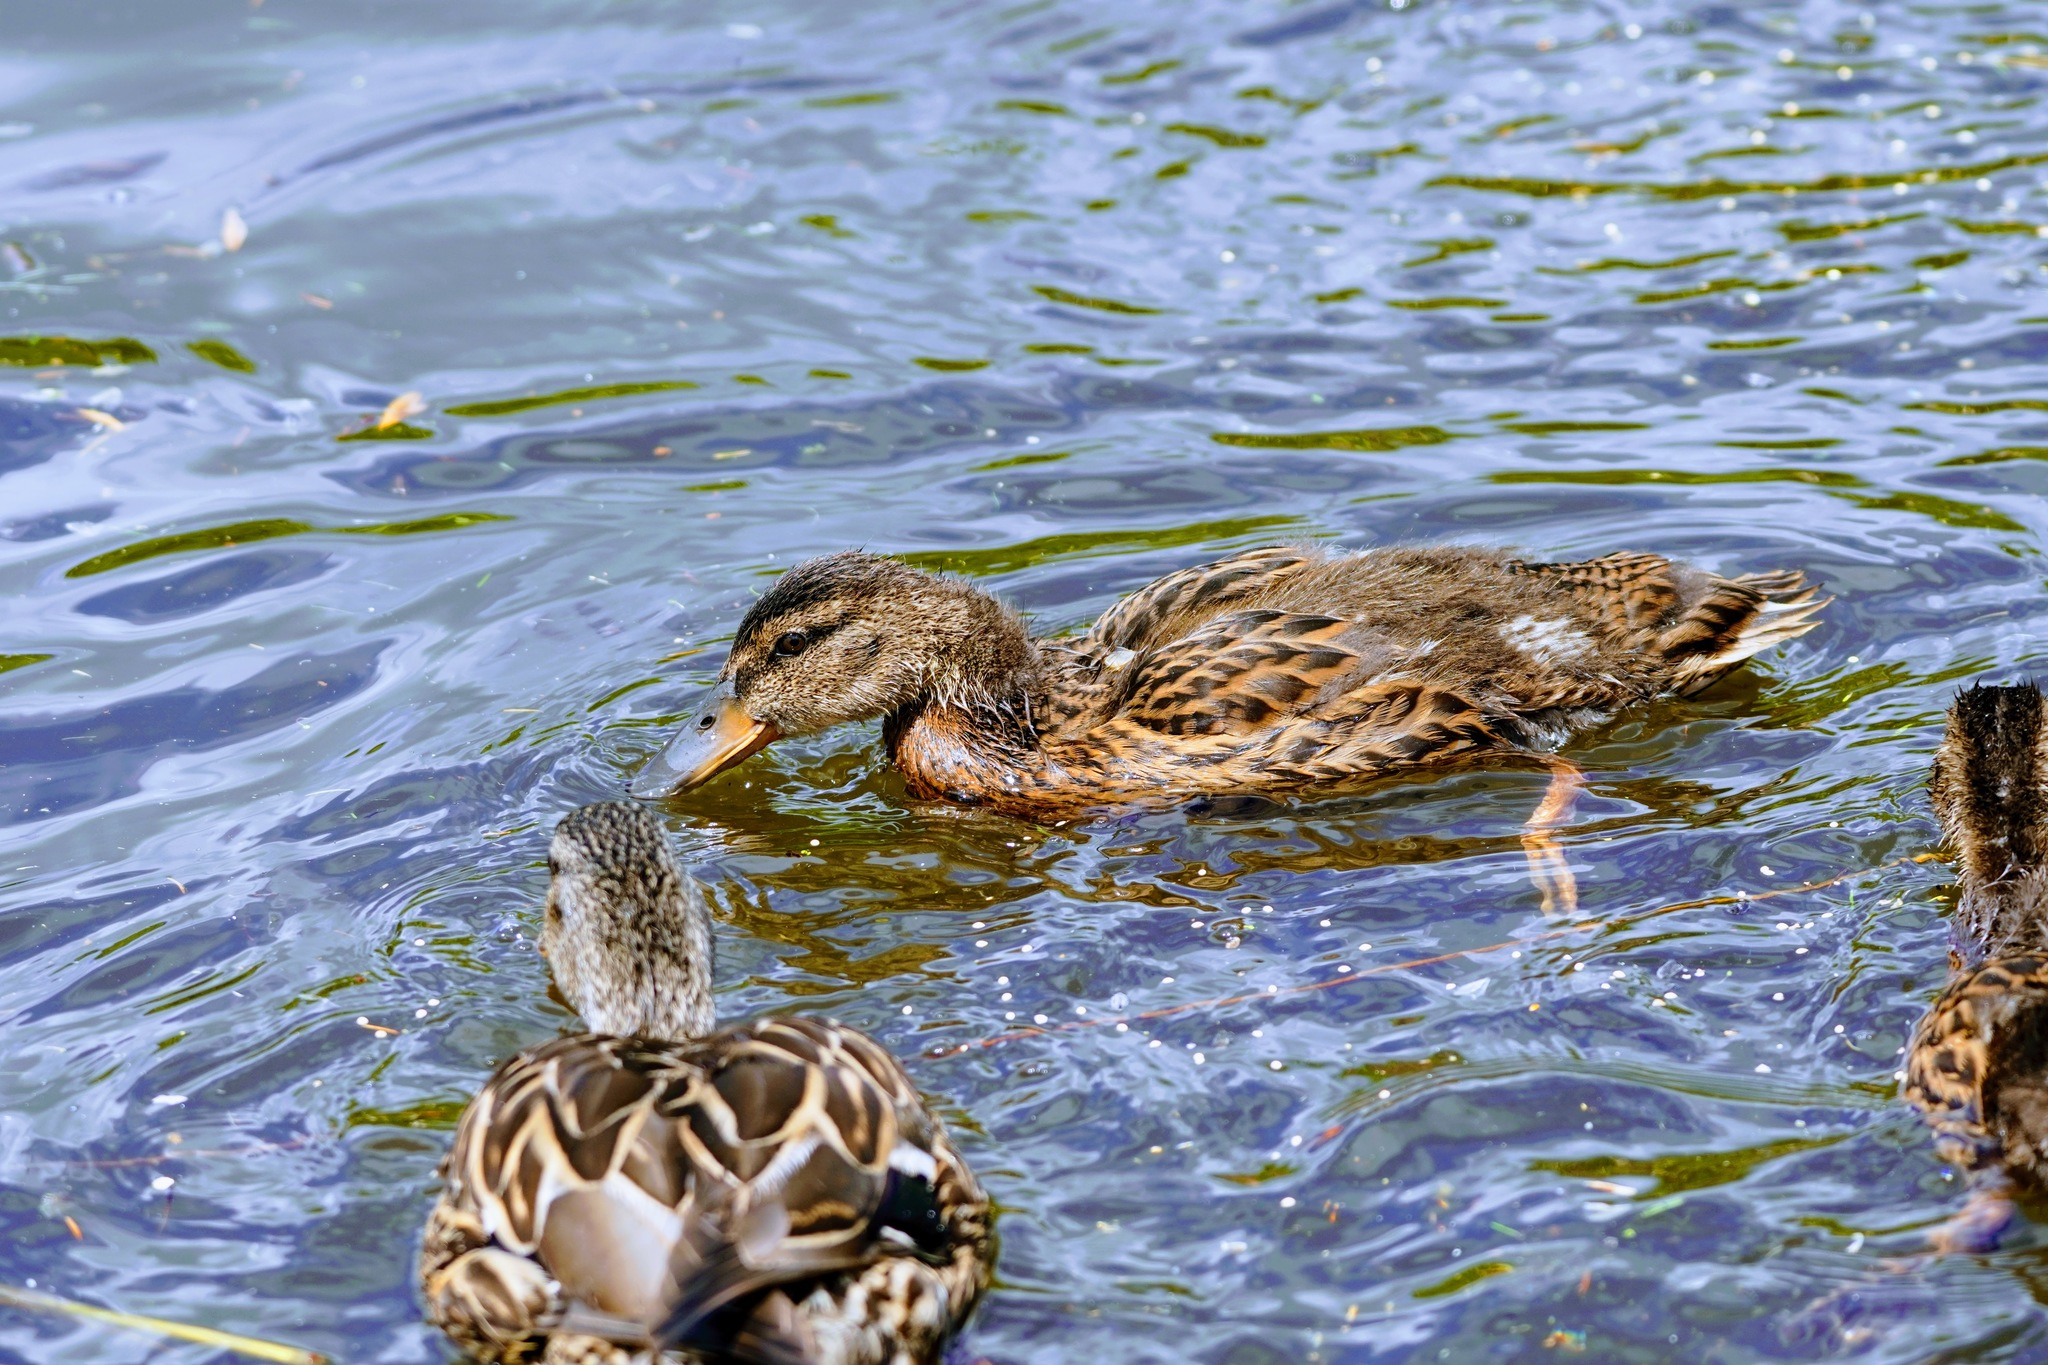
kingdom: Animalia
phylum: Chordata
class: Aves
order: Anseriformes
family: Anatidae
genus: Anas
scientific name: Anas platyrhynchos
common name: Mallard
